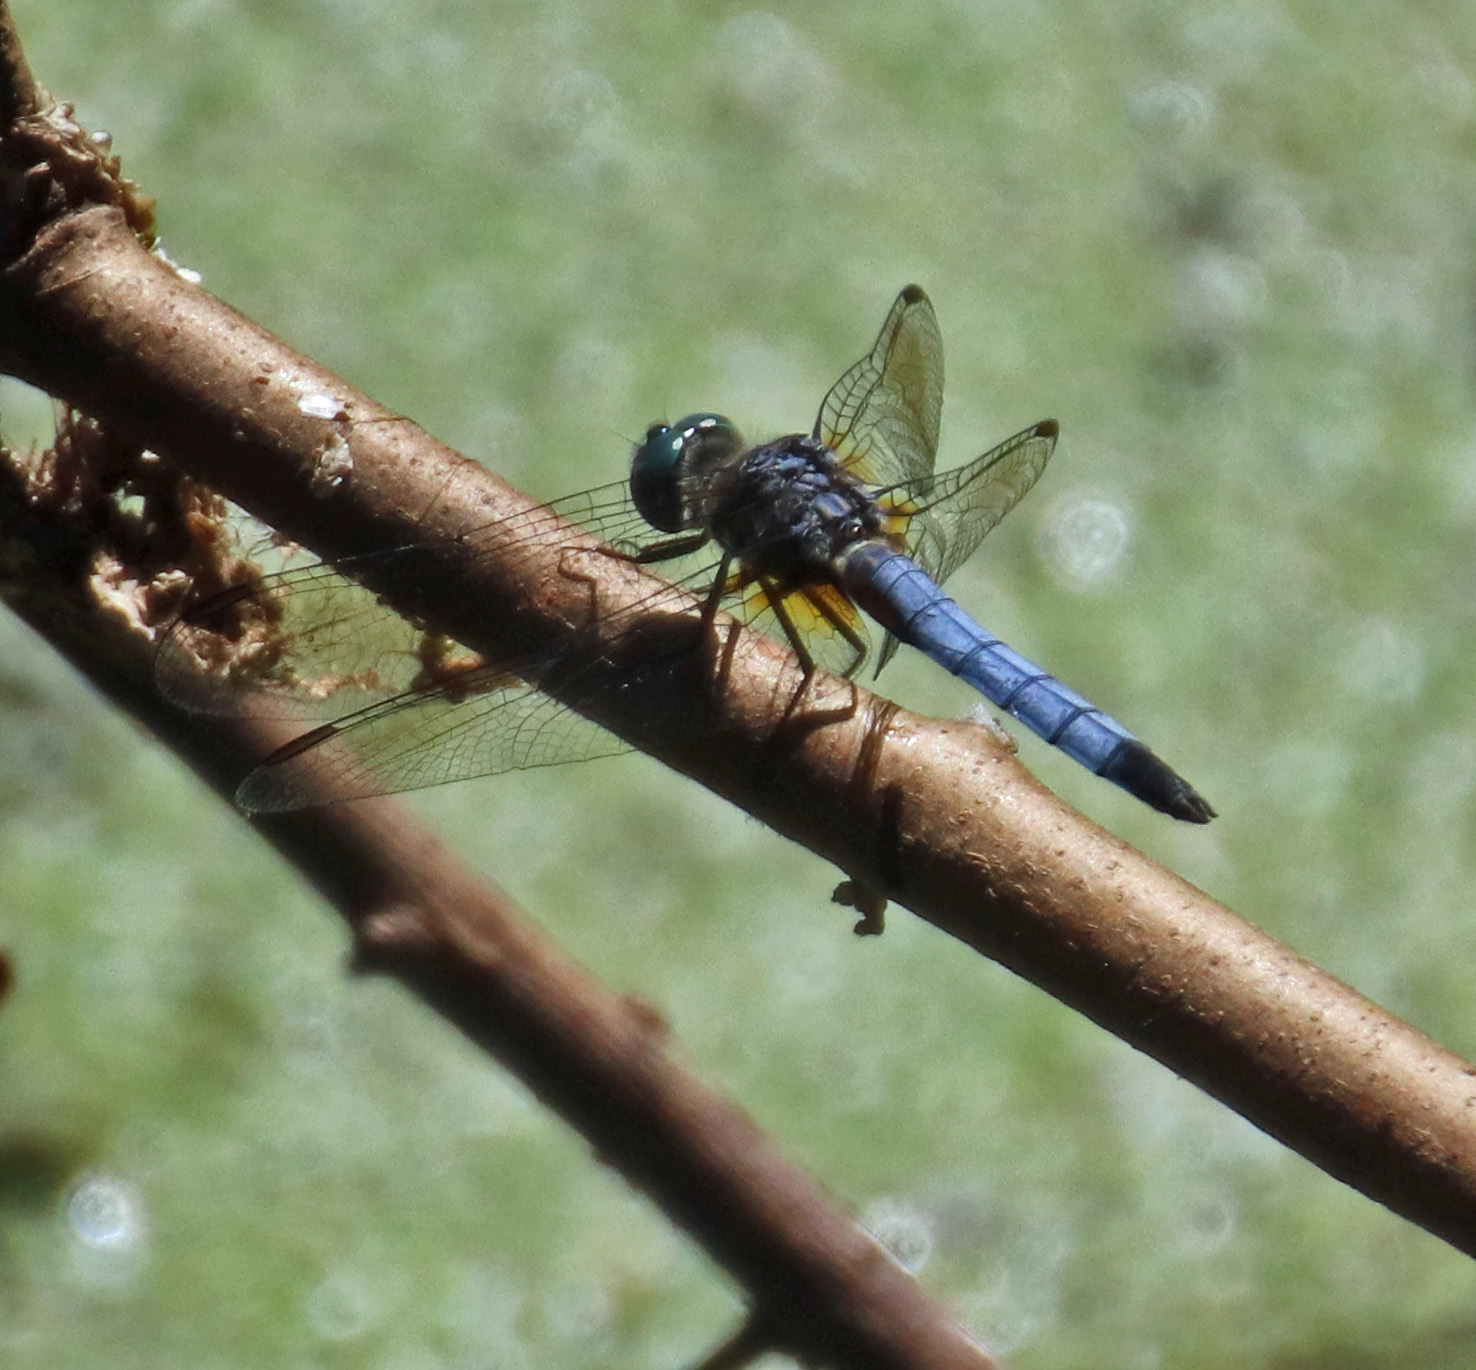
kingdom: Animalia
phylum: Arthropoda
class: Insecta
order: Odonata
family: Libellulidae
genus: Pachydiplax
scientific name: Pachydiplax longipennis
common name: Blue dasher
